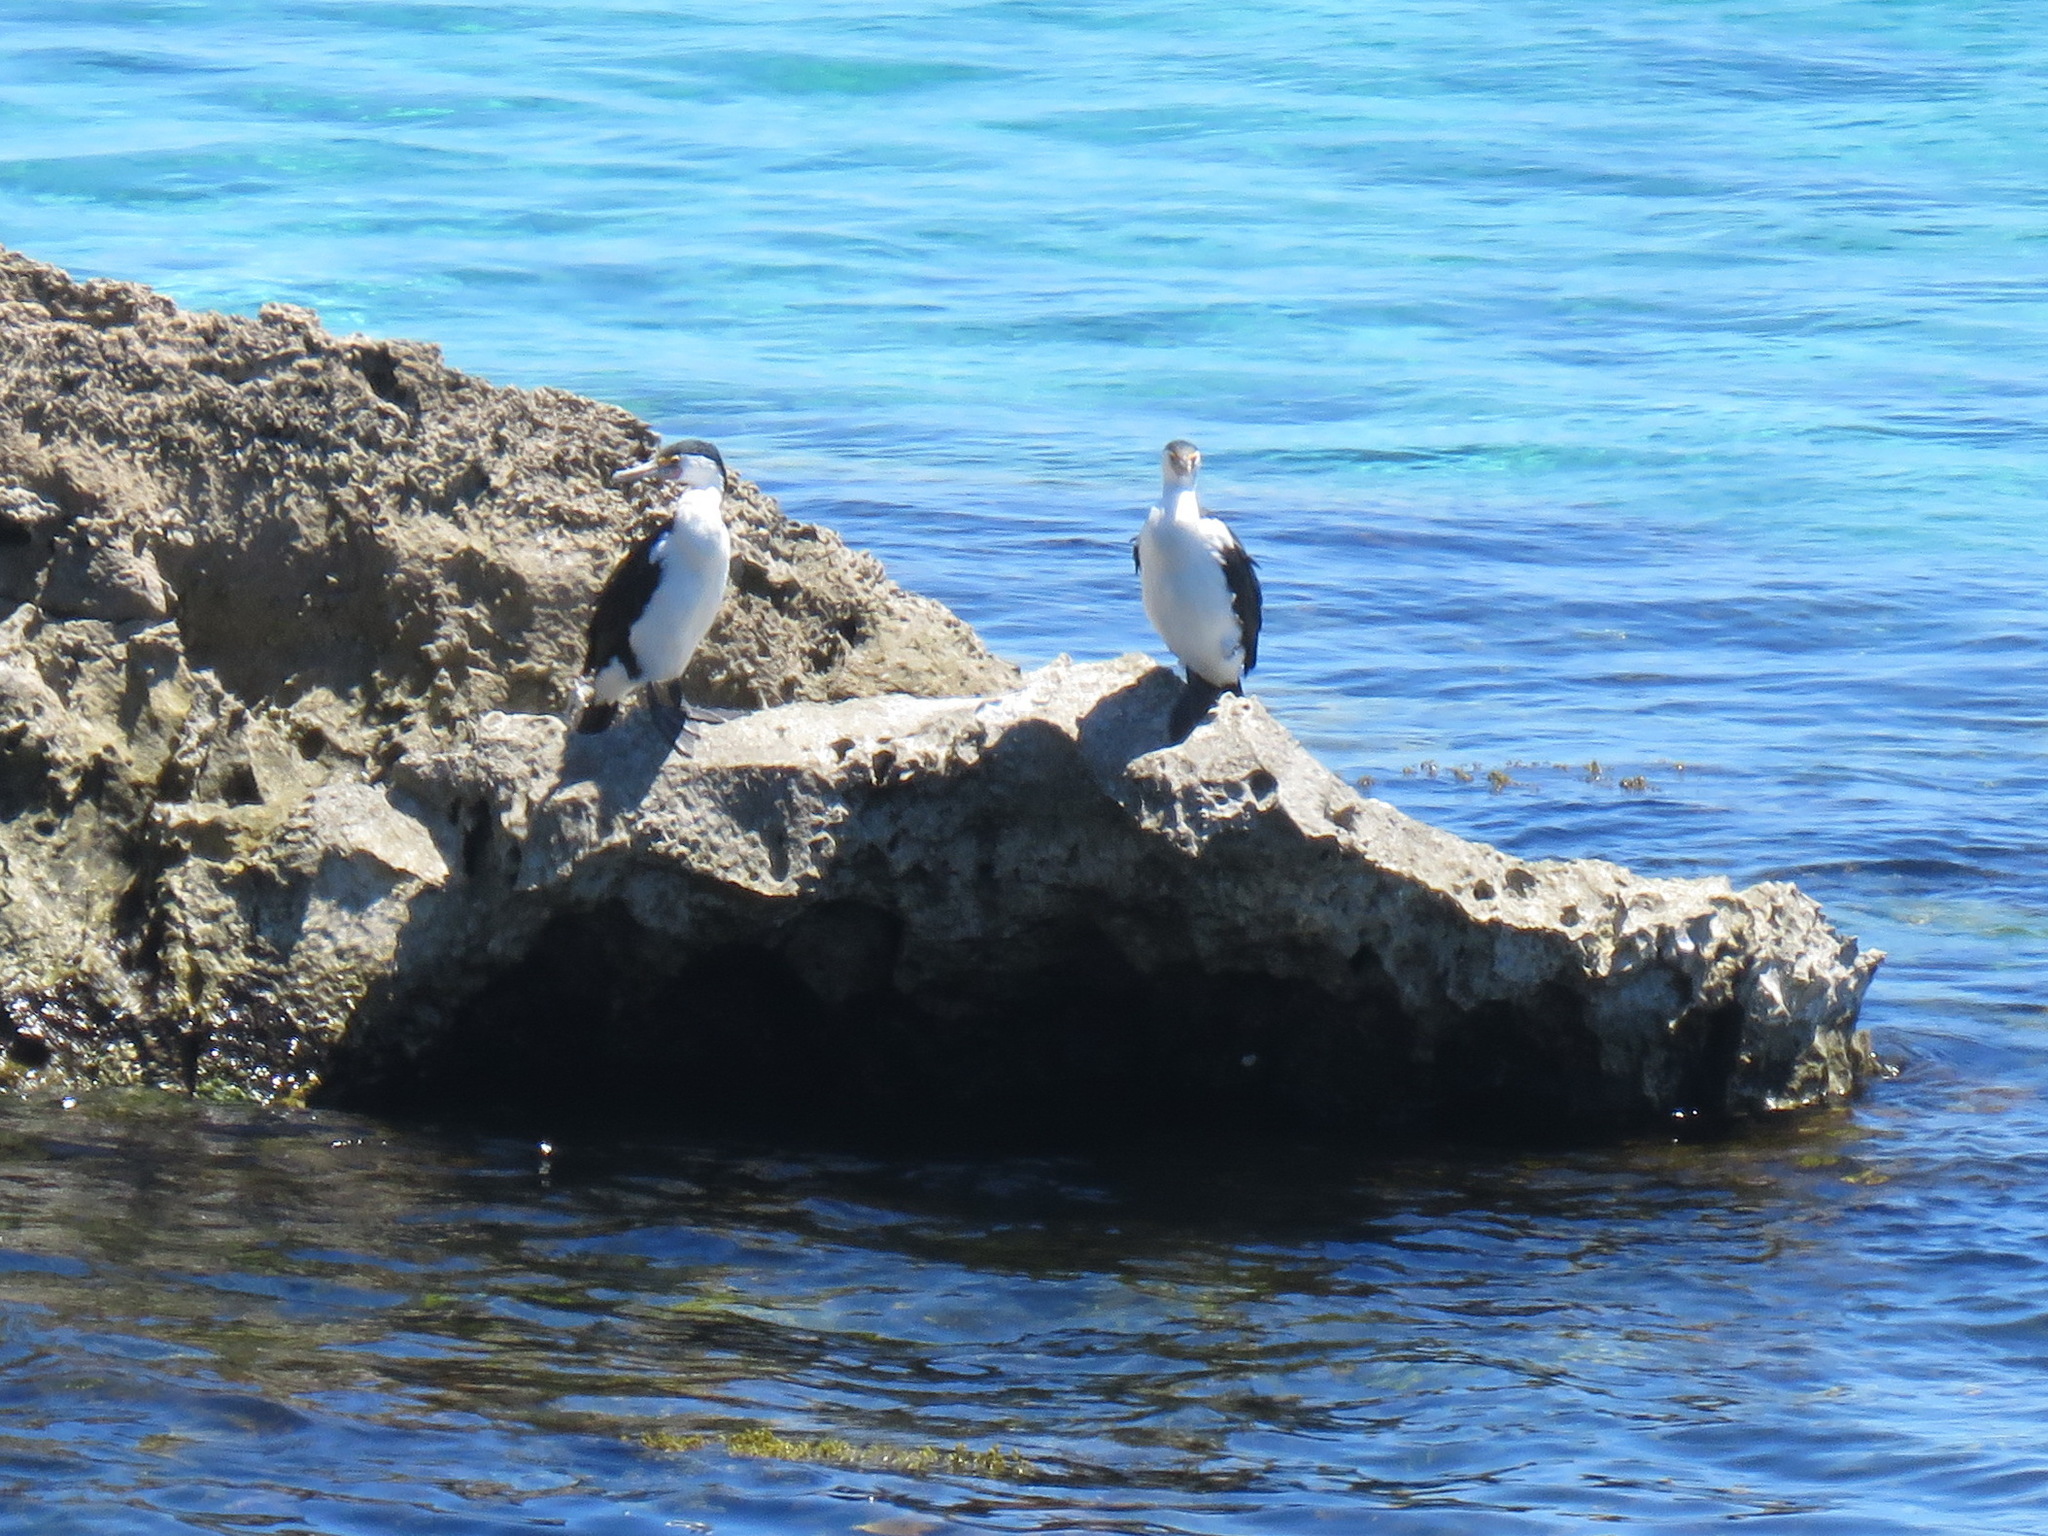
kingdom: Animalia
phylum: Chordata
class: Aves
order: Suliformes
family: Phalacrocoracidae
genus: Phalacrocorax
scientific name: Phalacrocorax varius
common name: Pied cormorant
